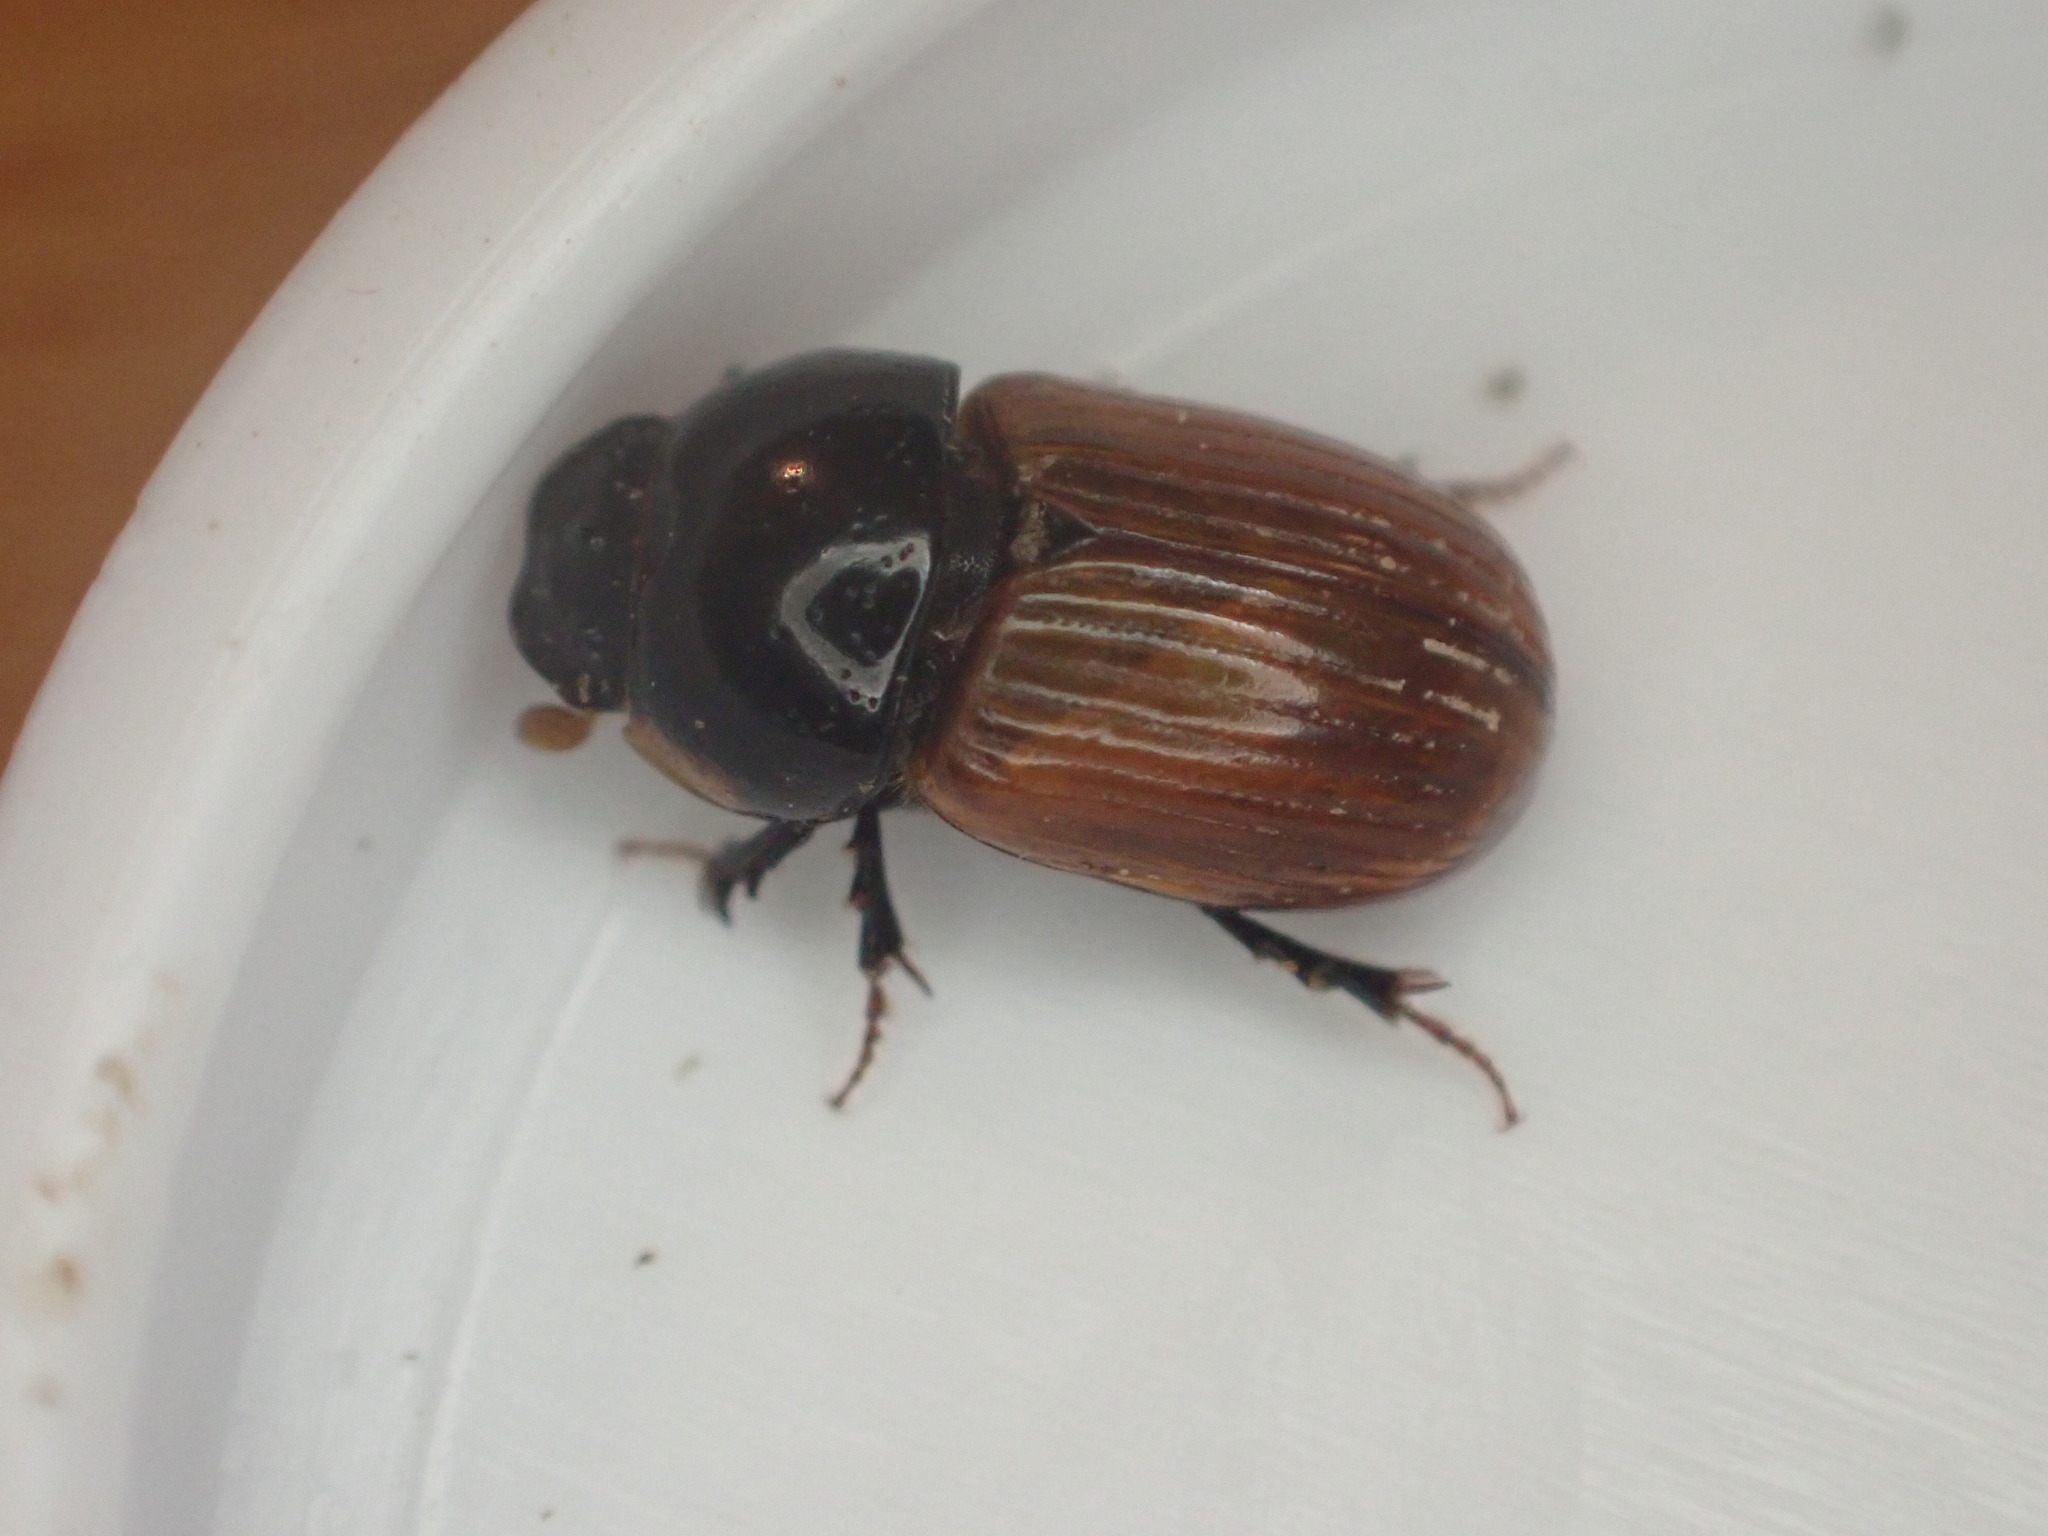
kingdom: Animalia
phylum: Arthropoda
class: Insecta
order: Coleoptera
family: Scarabaeidae
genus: Aphodius
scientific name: Aphodius fimetarius
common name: Common dung beetle
